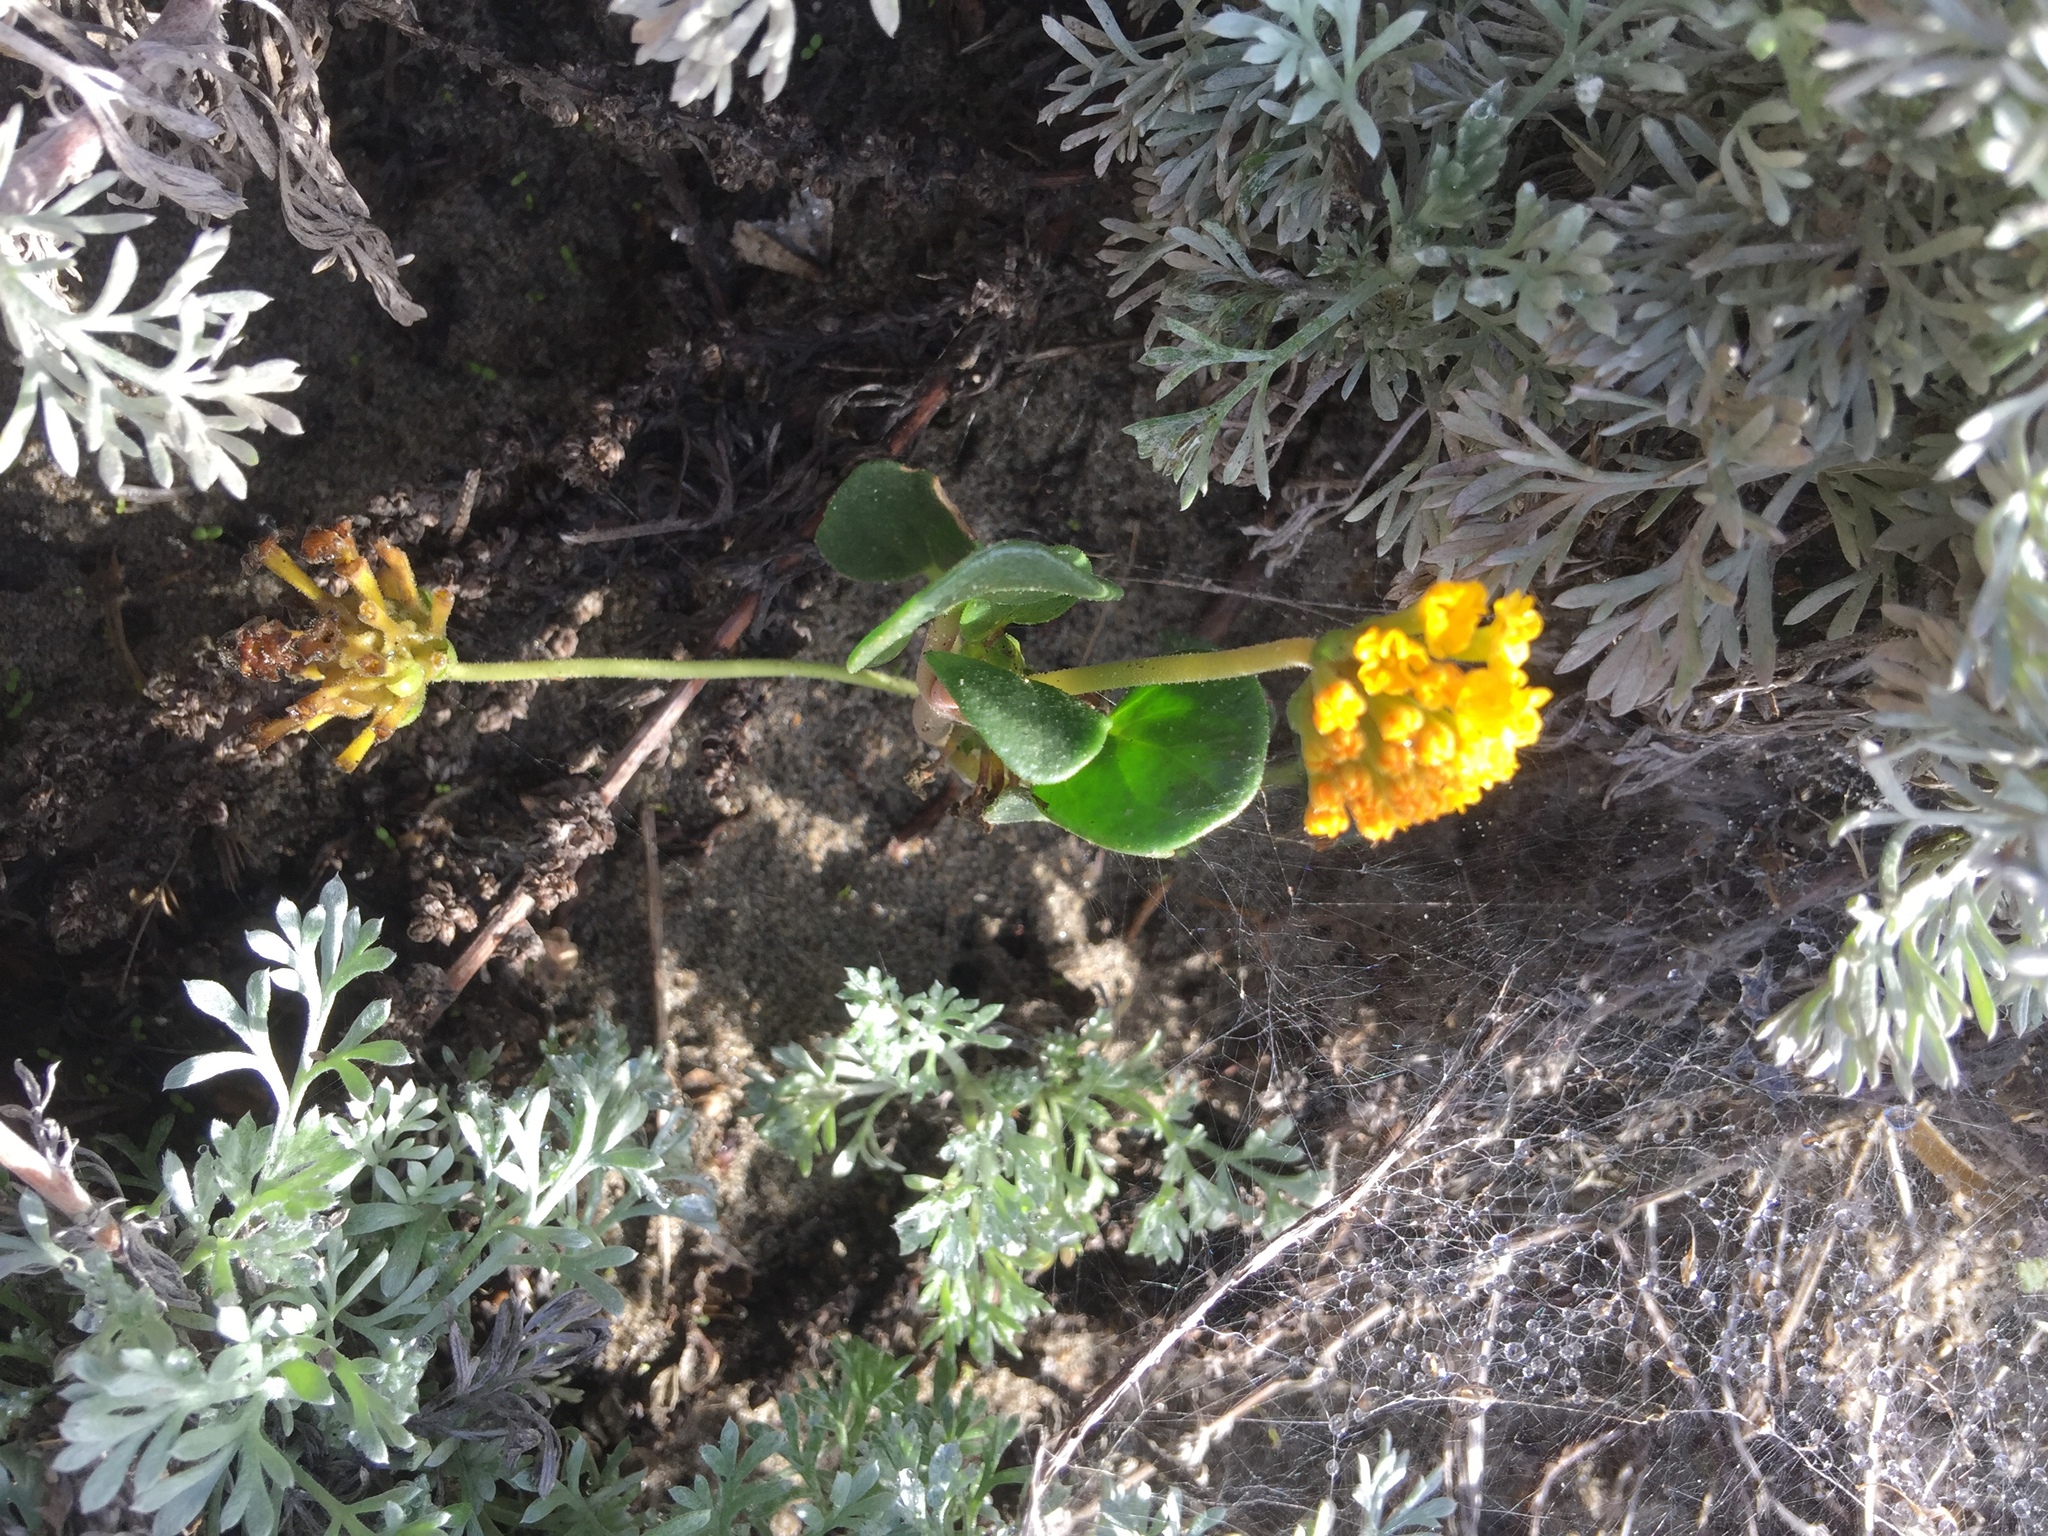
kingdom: Plantae
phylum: Tracheophyta
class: Magnoliopsida
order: Caryophyllales
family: Nyctaginaceae
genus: Abronia
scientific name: Abronia latifolia
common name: Yellow sand-verbena
